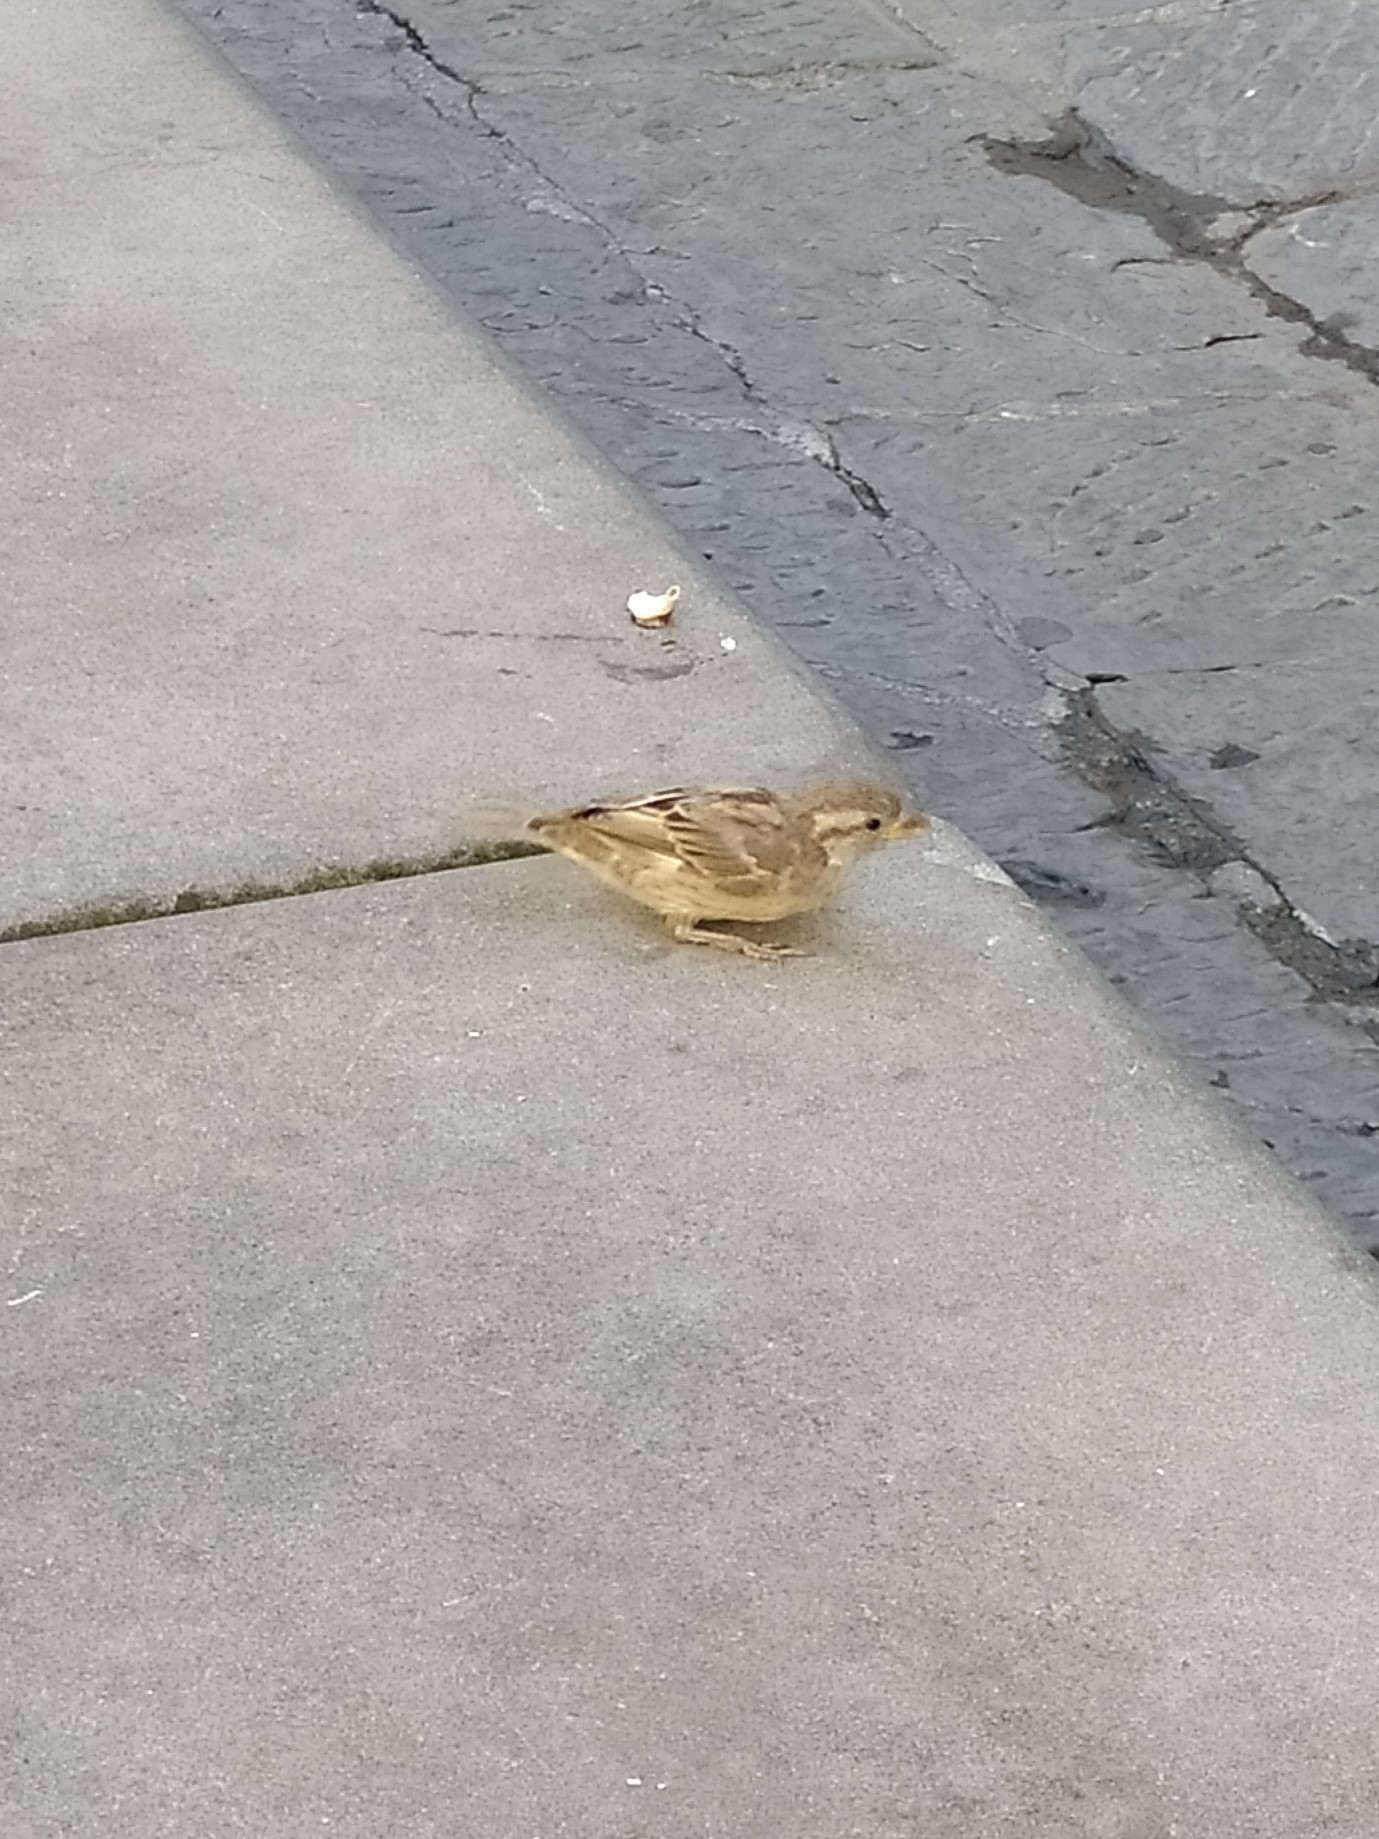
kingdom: Animalia
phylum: Chordata
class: Aves
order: Passeriformes
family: Passeridae
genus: Passer
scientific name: Passer italiae
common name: Italian sparrow
